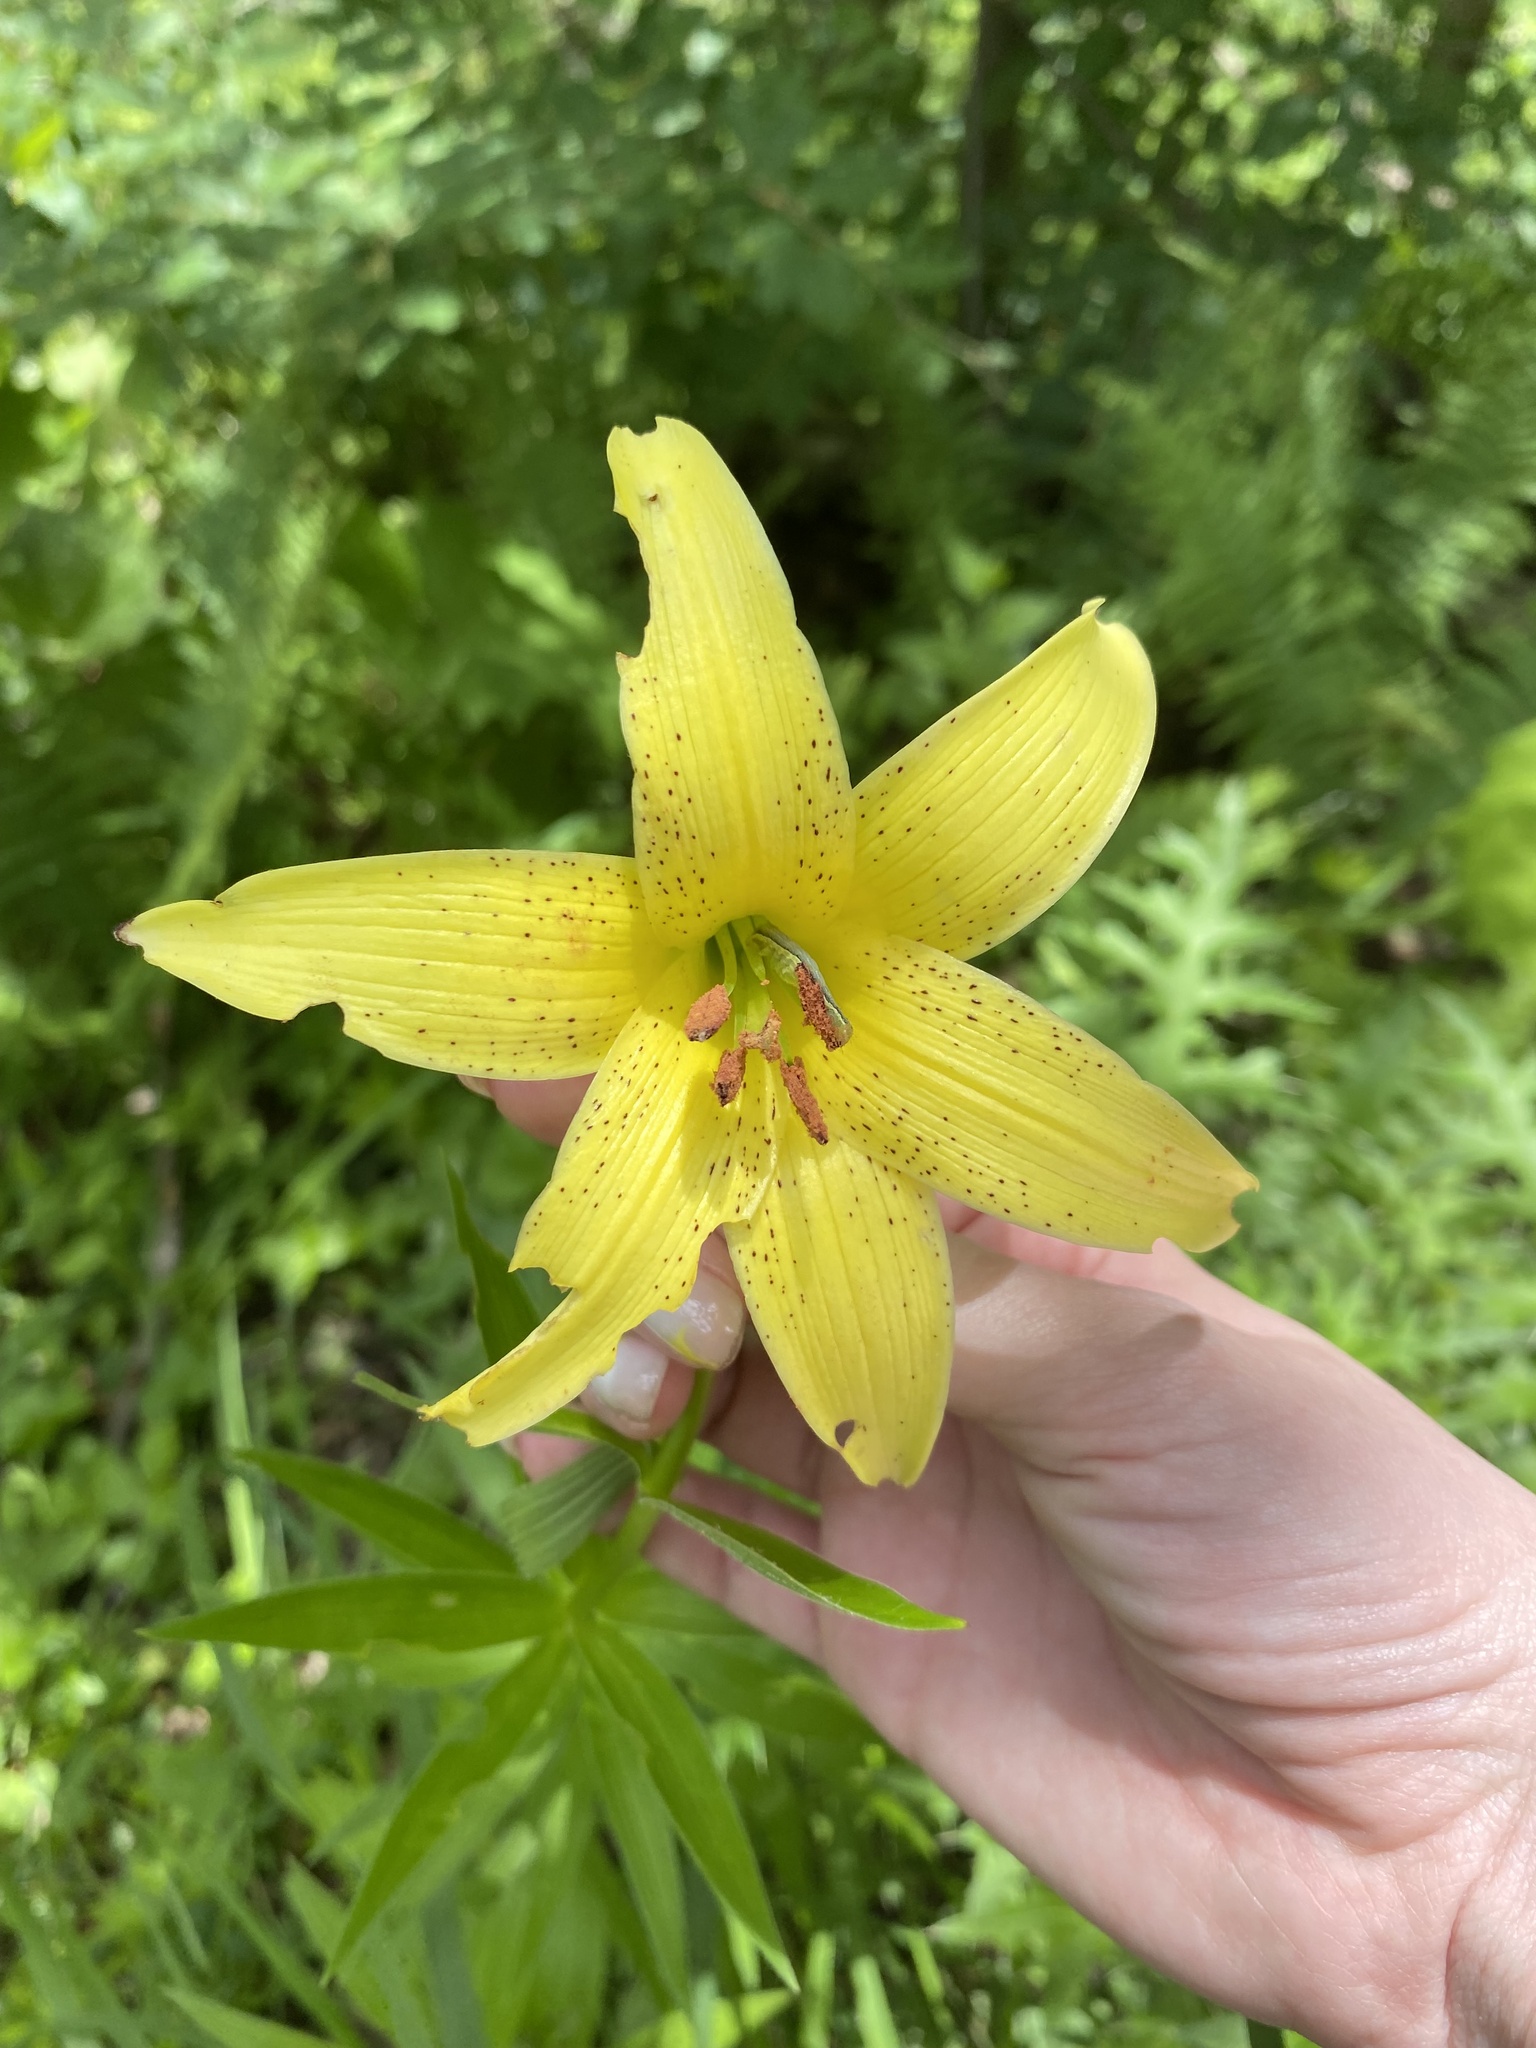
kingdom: Plantae
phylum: Tracheophyta
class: Liliopsida
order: Liliales
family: Liliaceae
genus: Lilium
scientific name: Lilium monadelphum
